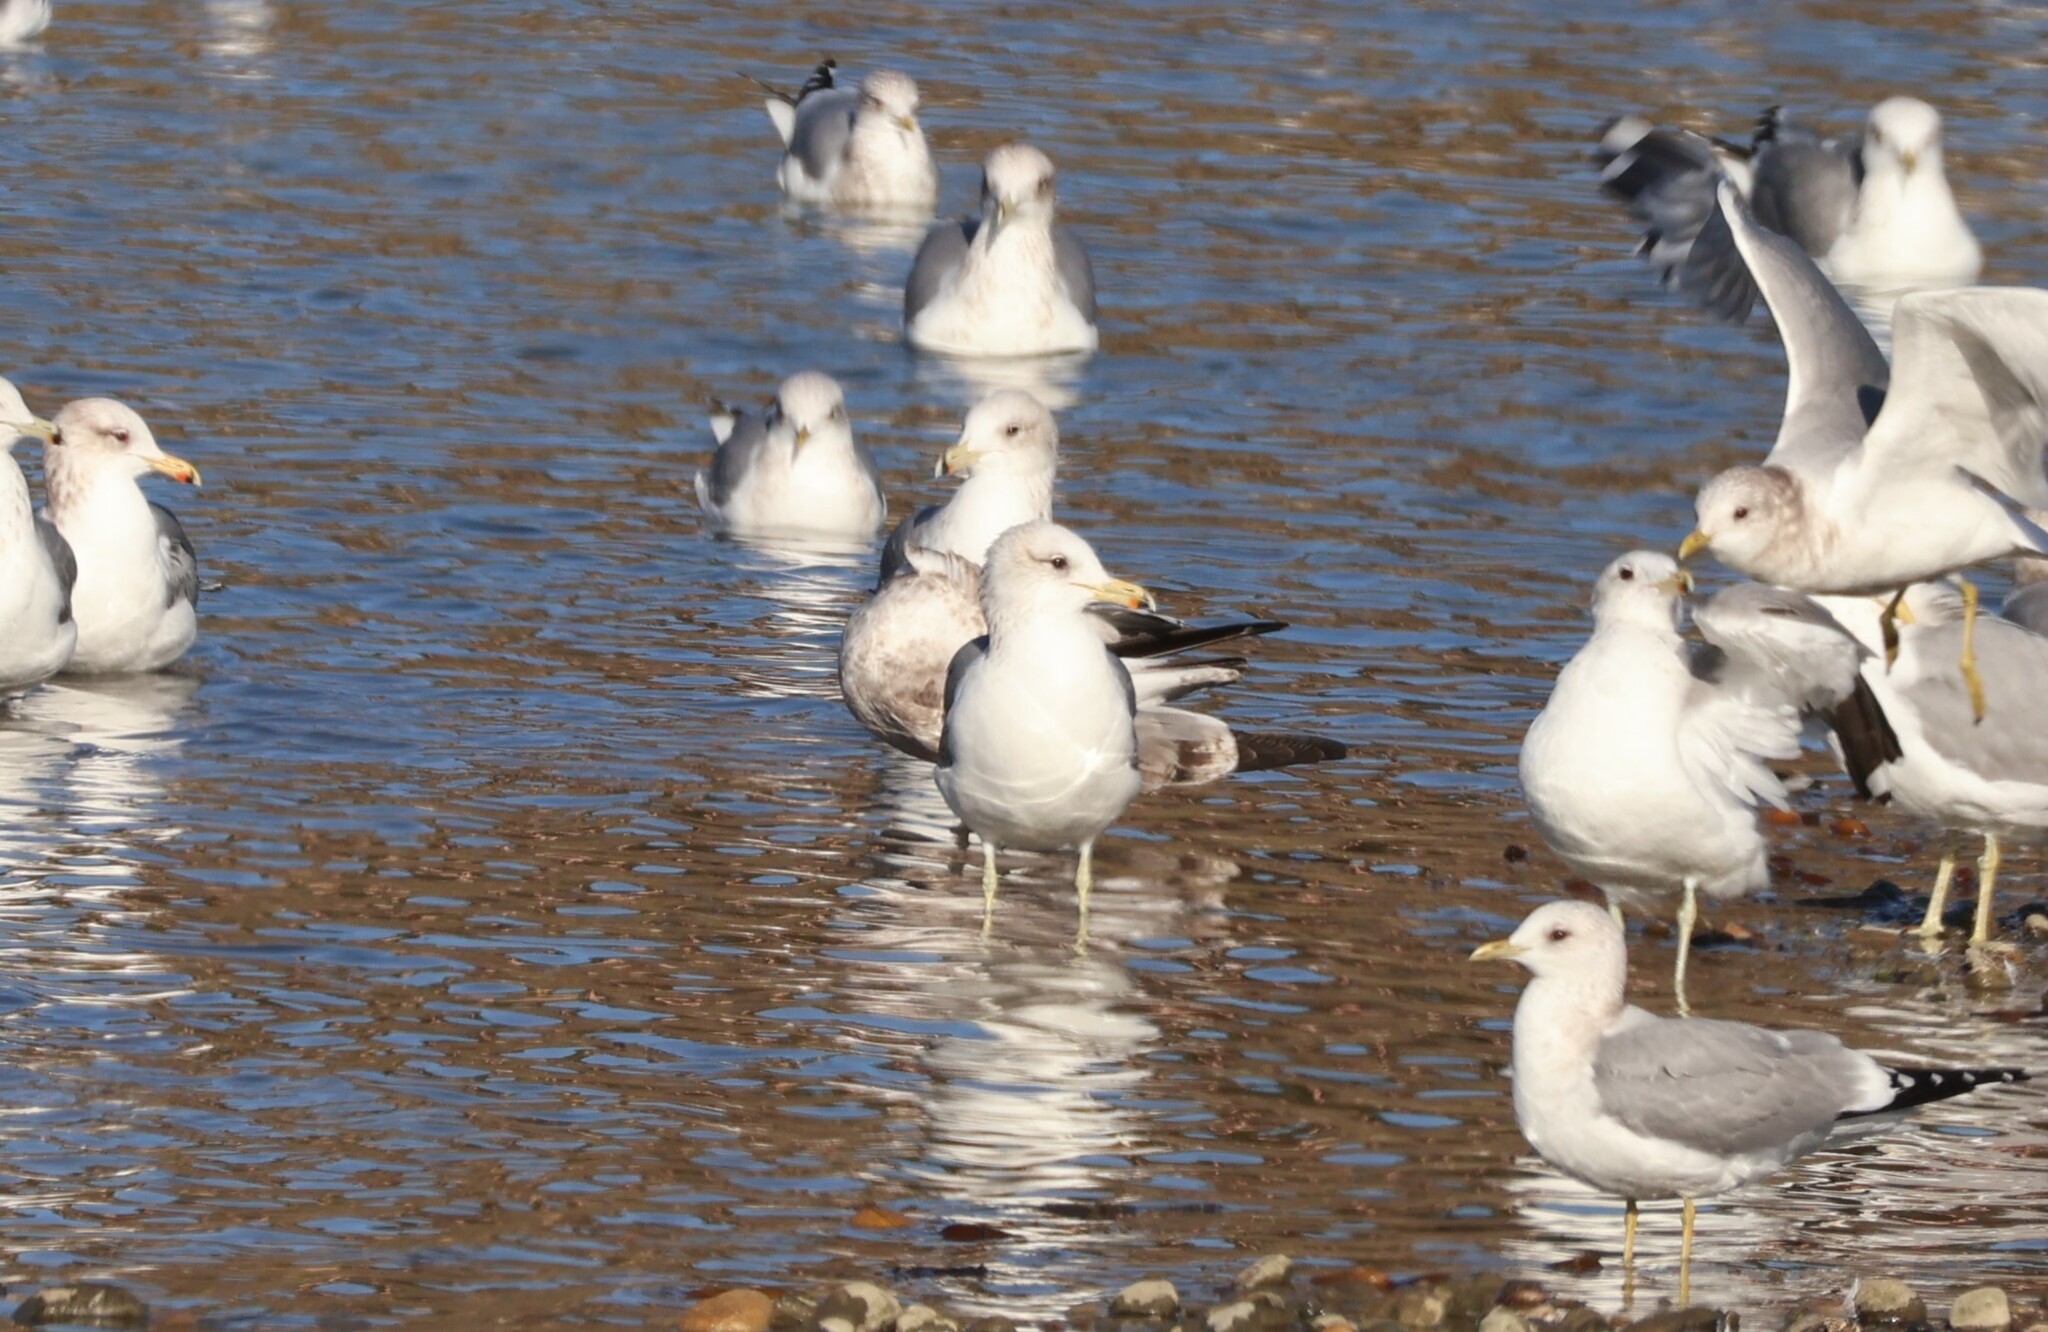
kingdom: Animalia
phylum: Chordata
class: Aves
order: Charadriiformes
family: Laridae
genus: Larus
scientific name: Larus californicus
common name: California gull
